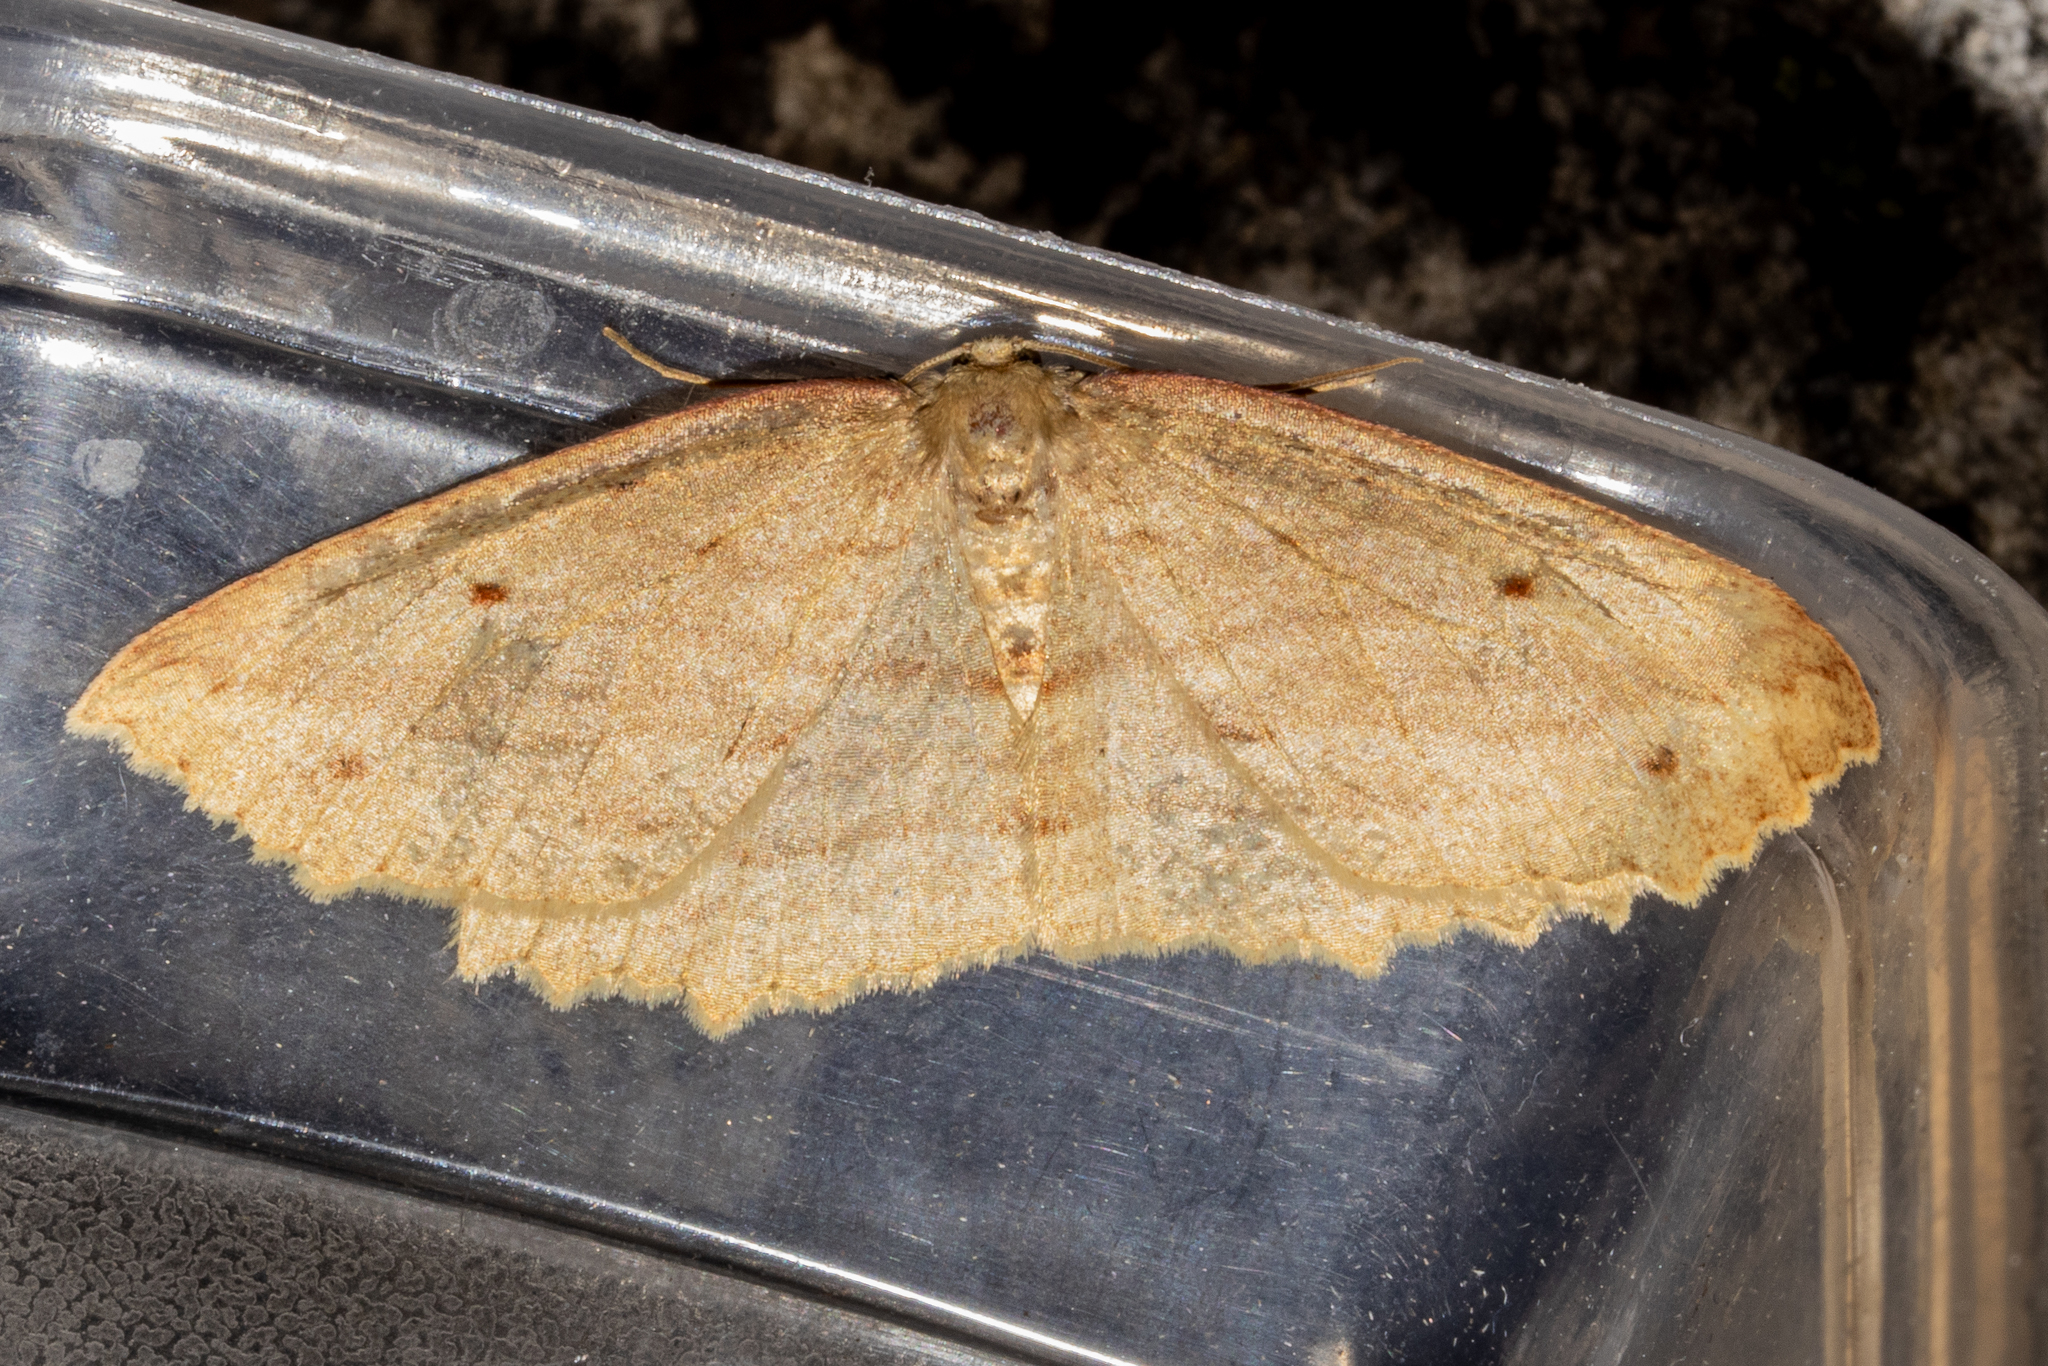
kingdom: Animalia
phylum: Arthropoda
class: Insecta
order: Lepidoptera
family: Geometridae
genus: Xyridacma
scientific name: Xyridacma veronicae
